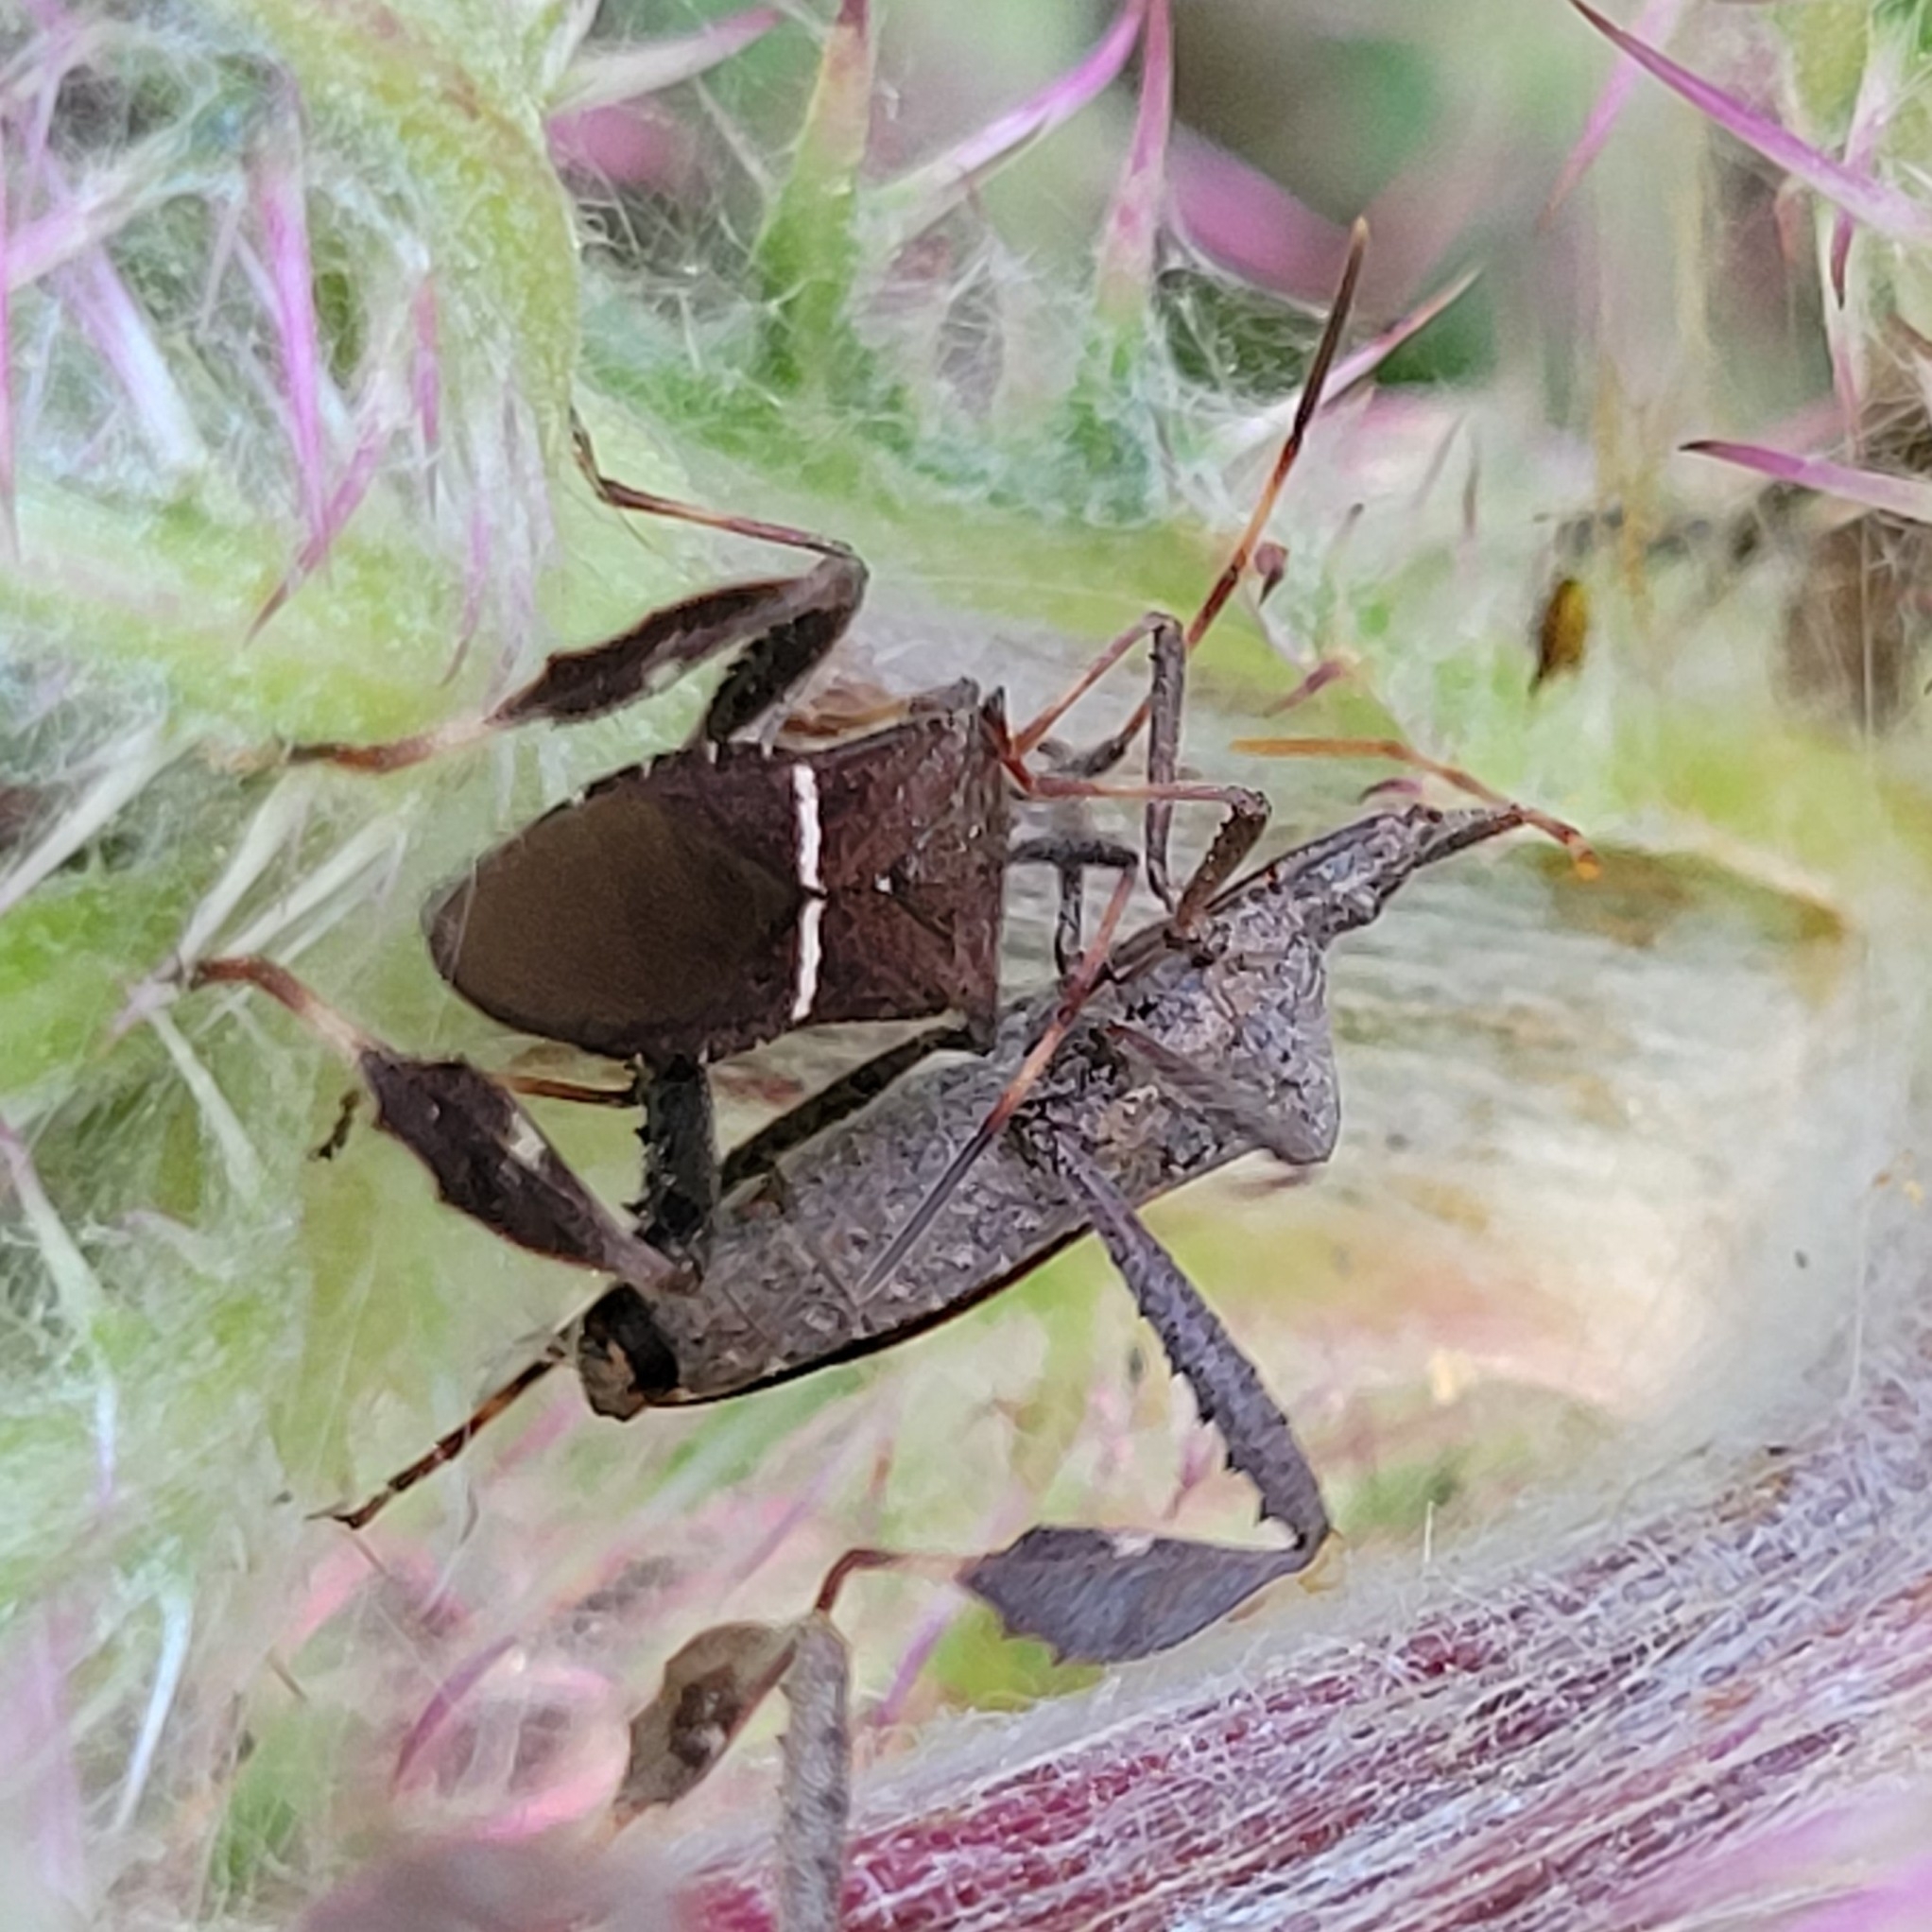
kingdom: Animalia
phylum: Arthropoda
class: Insecta
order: Hemiptera
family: Coreidae
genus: Leptoglossus
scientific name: Leptoglossus phyllopus
